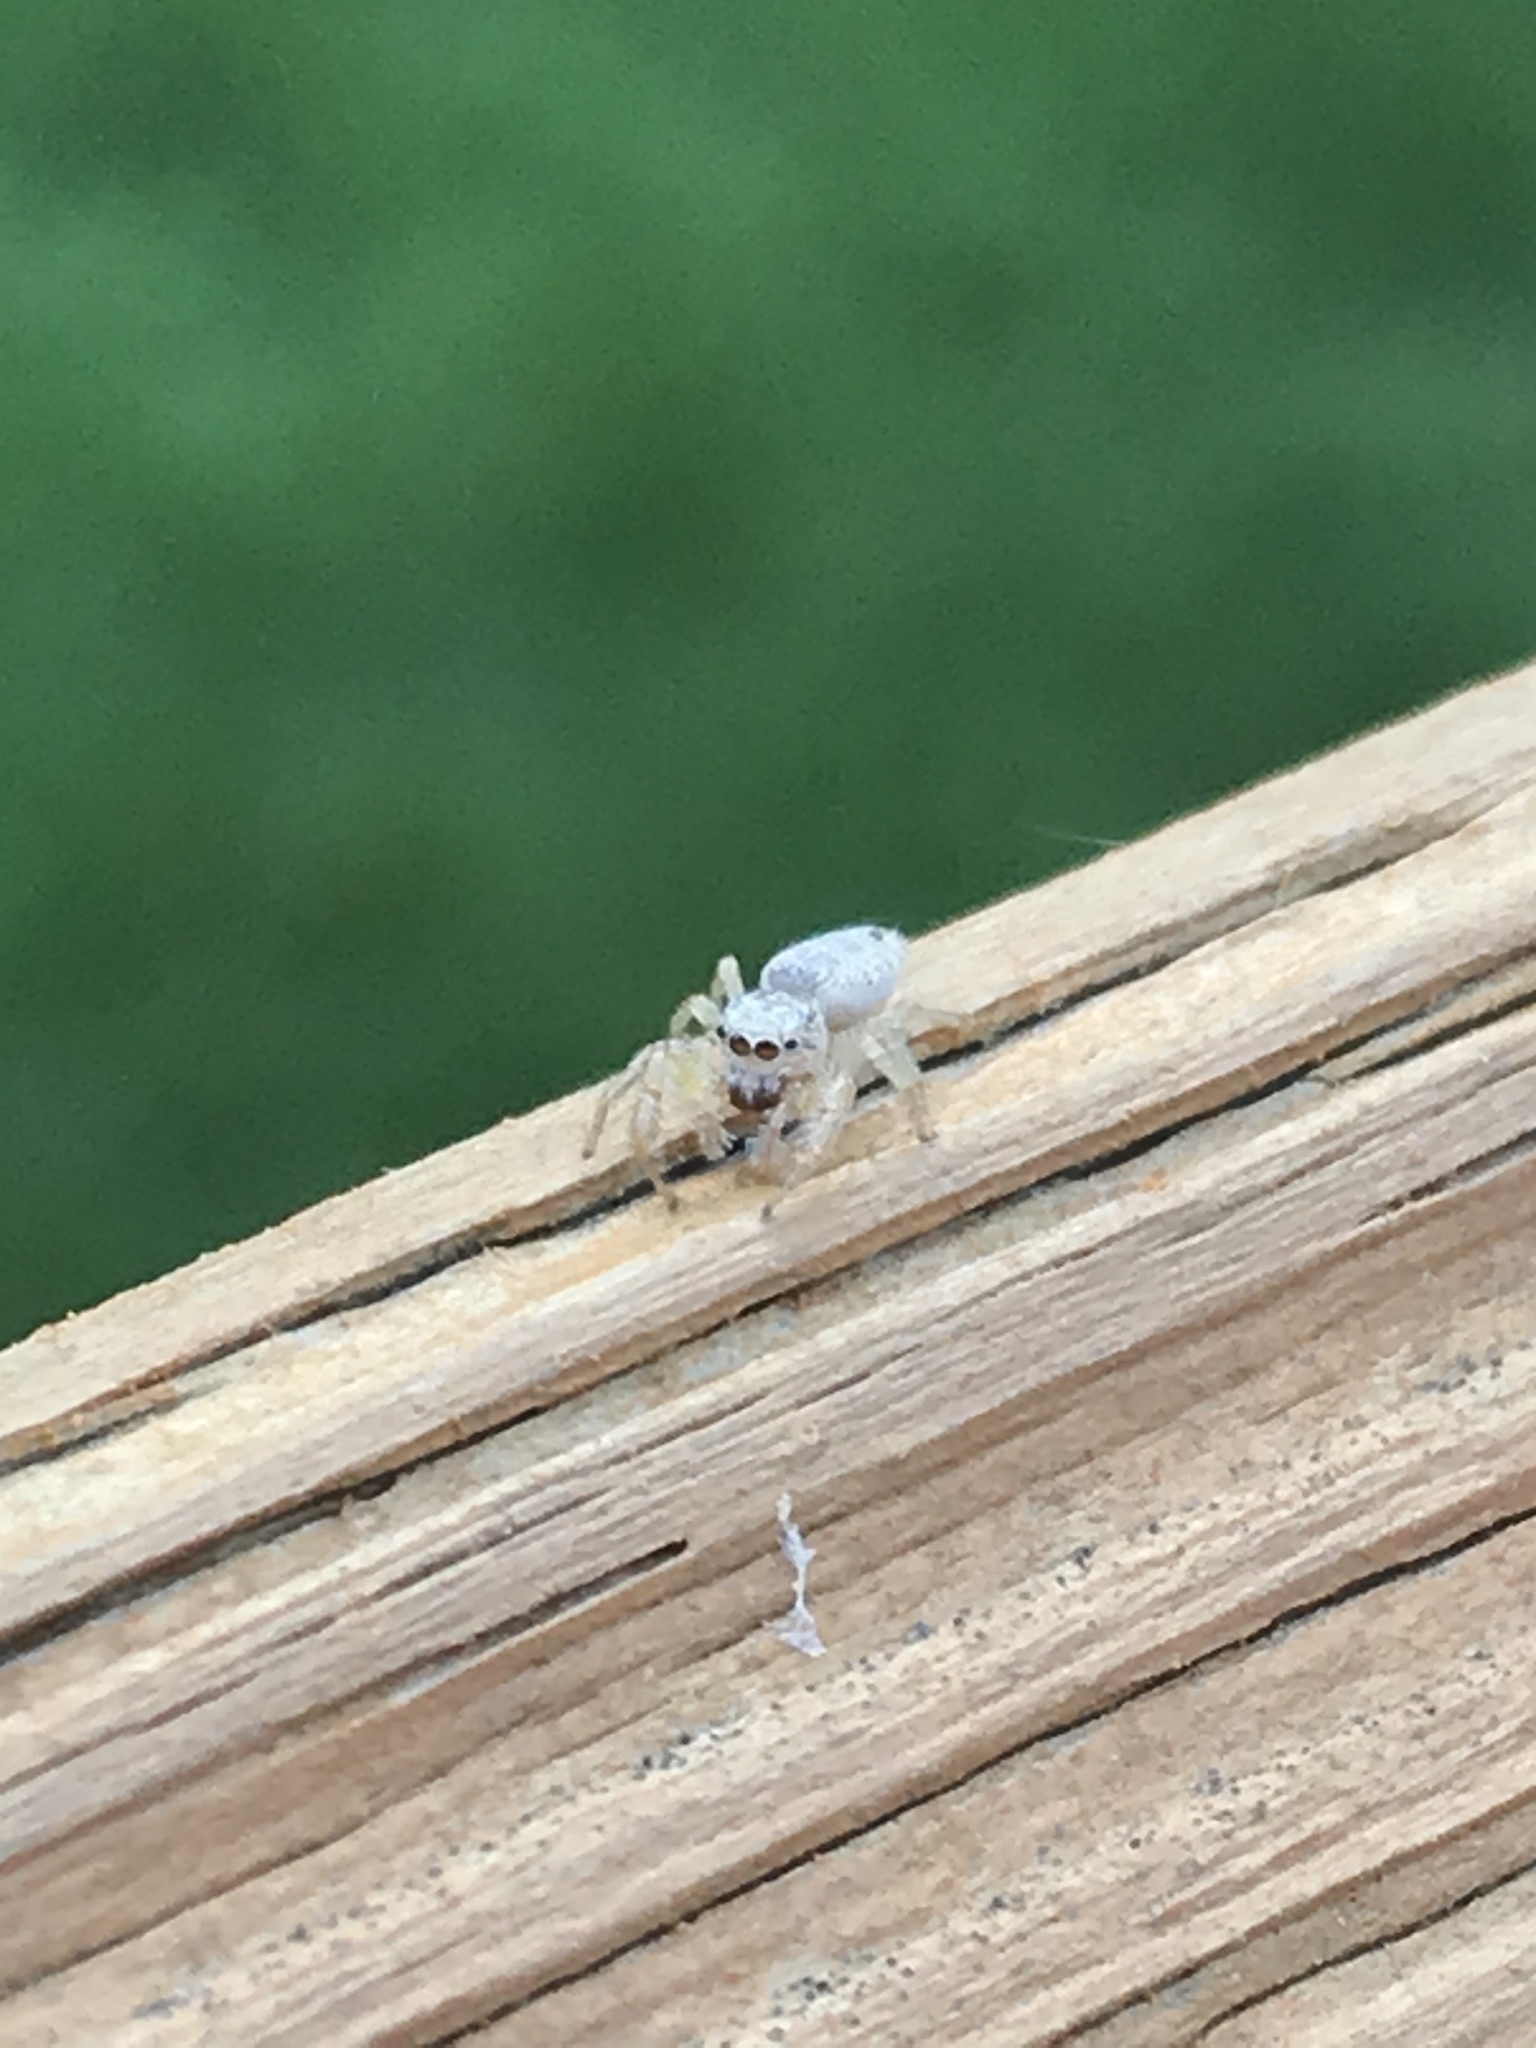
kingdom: Animalia
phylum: Arthropoda
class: Arachnida
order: Araneae
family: Salticidae
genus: Hentzia
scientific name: Hentzia mitrata
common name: White-jawed jumping spider
